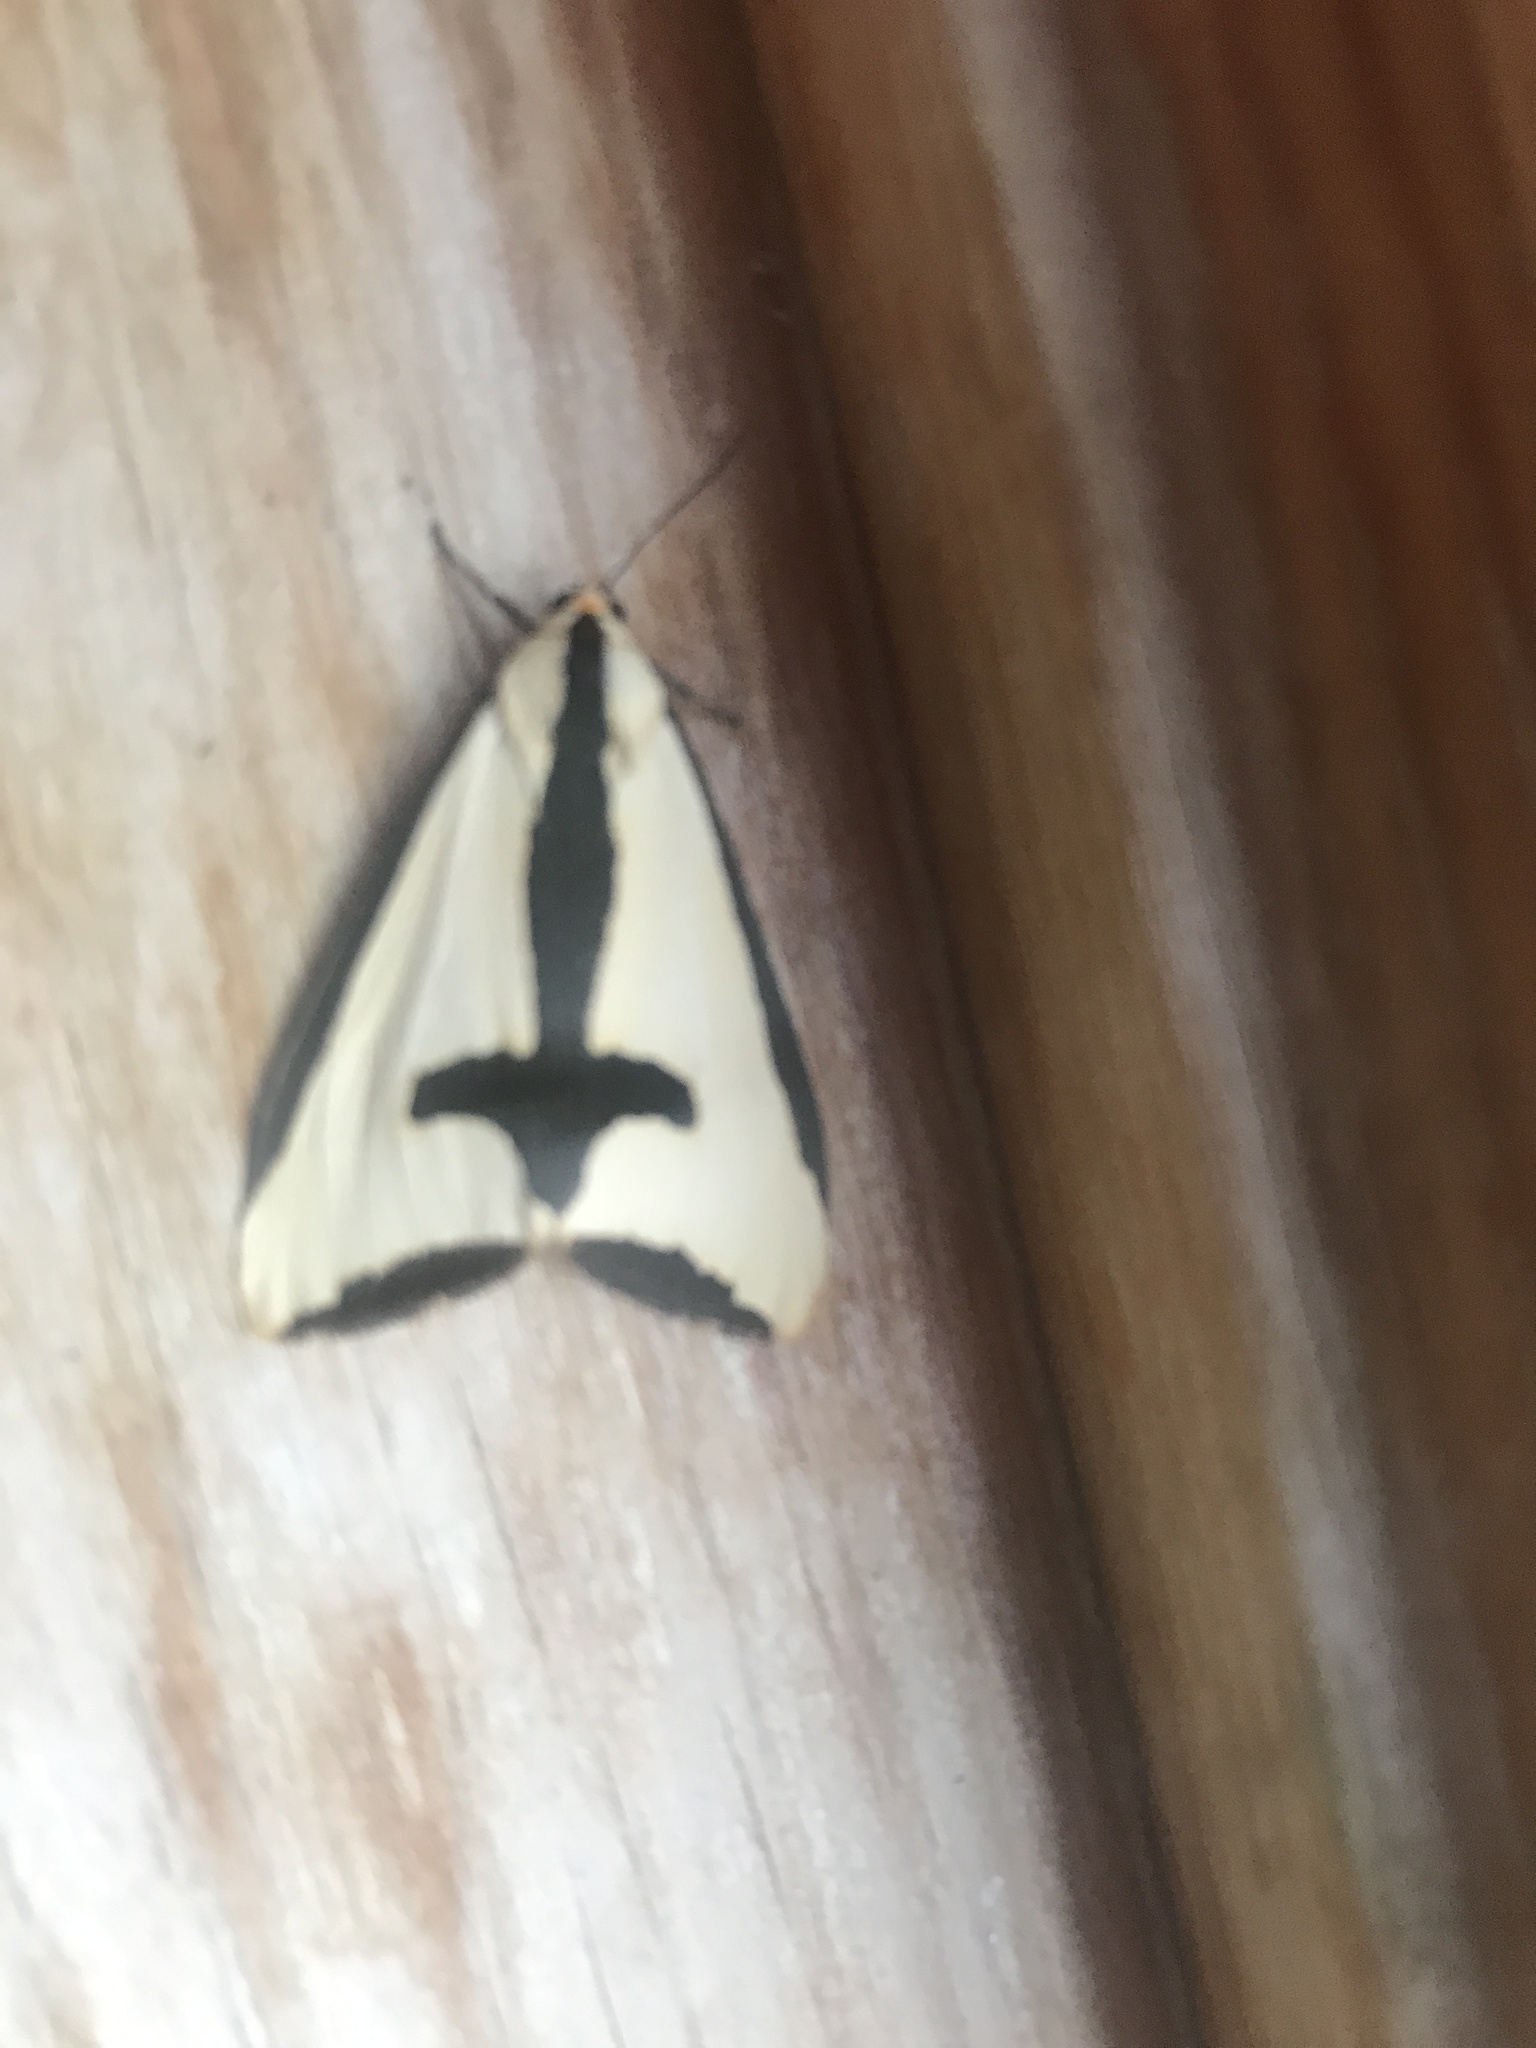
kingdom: Animalia
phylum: Arthropoda
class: Insecta
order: Lepidoptera
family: Erebidae
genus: Haploa
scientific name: Haploa clymene
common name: Clymene moth
